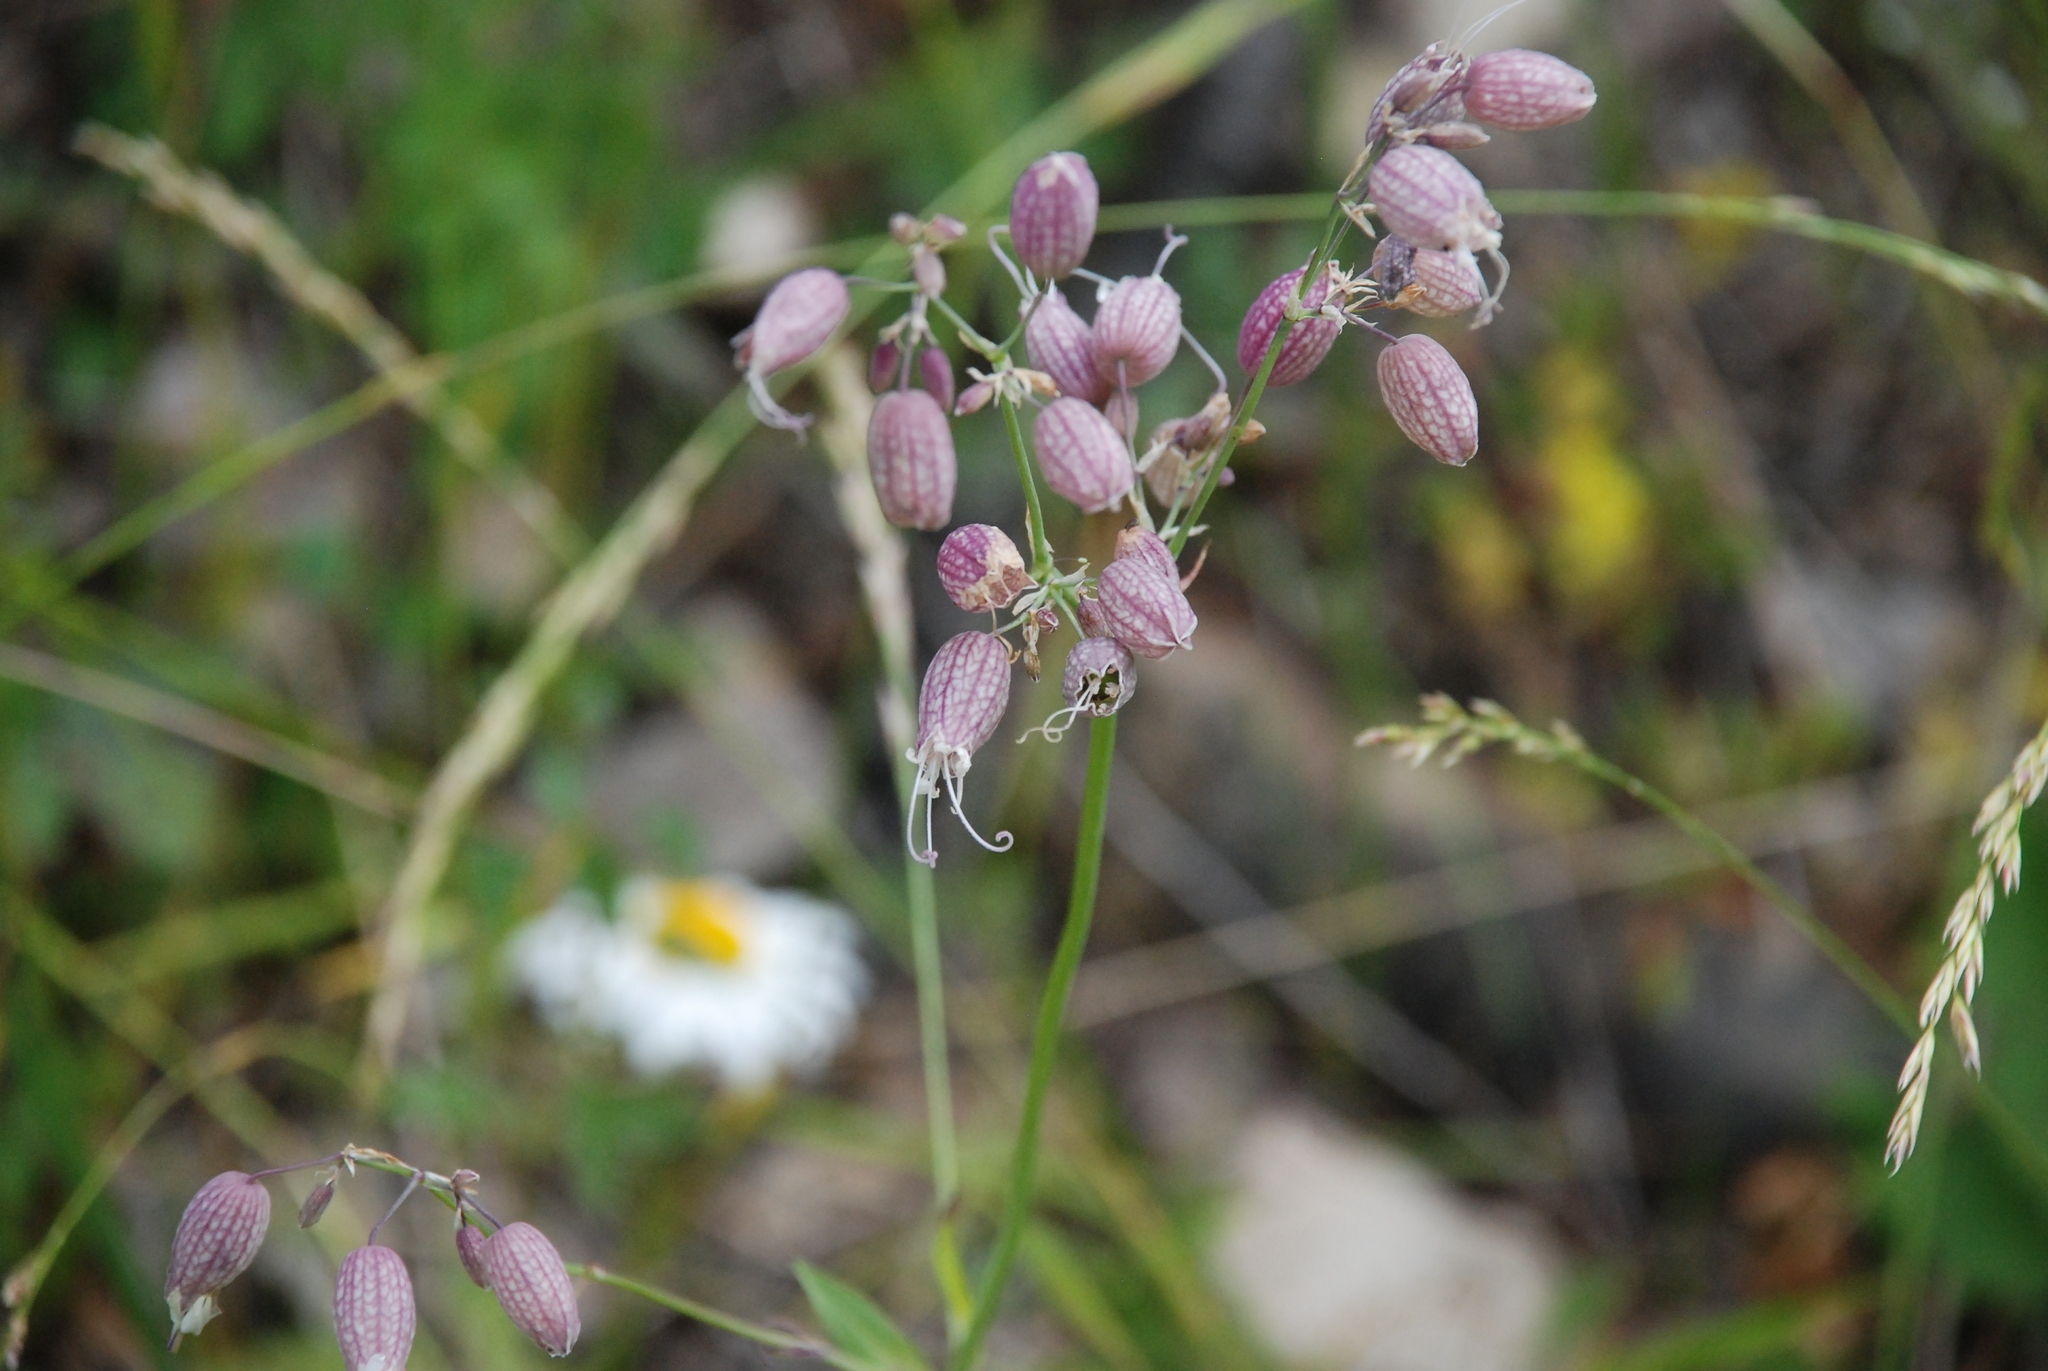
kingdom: Plantae
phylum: Tracheophyta
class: Magnoliopsida
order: Caryophyllales
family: Caryophyllaceae
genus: Silene
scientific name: Silene vulgaris
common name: Bladder campion
